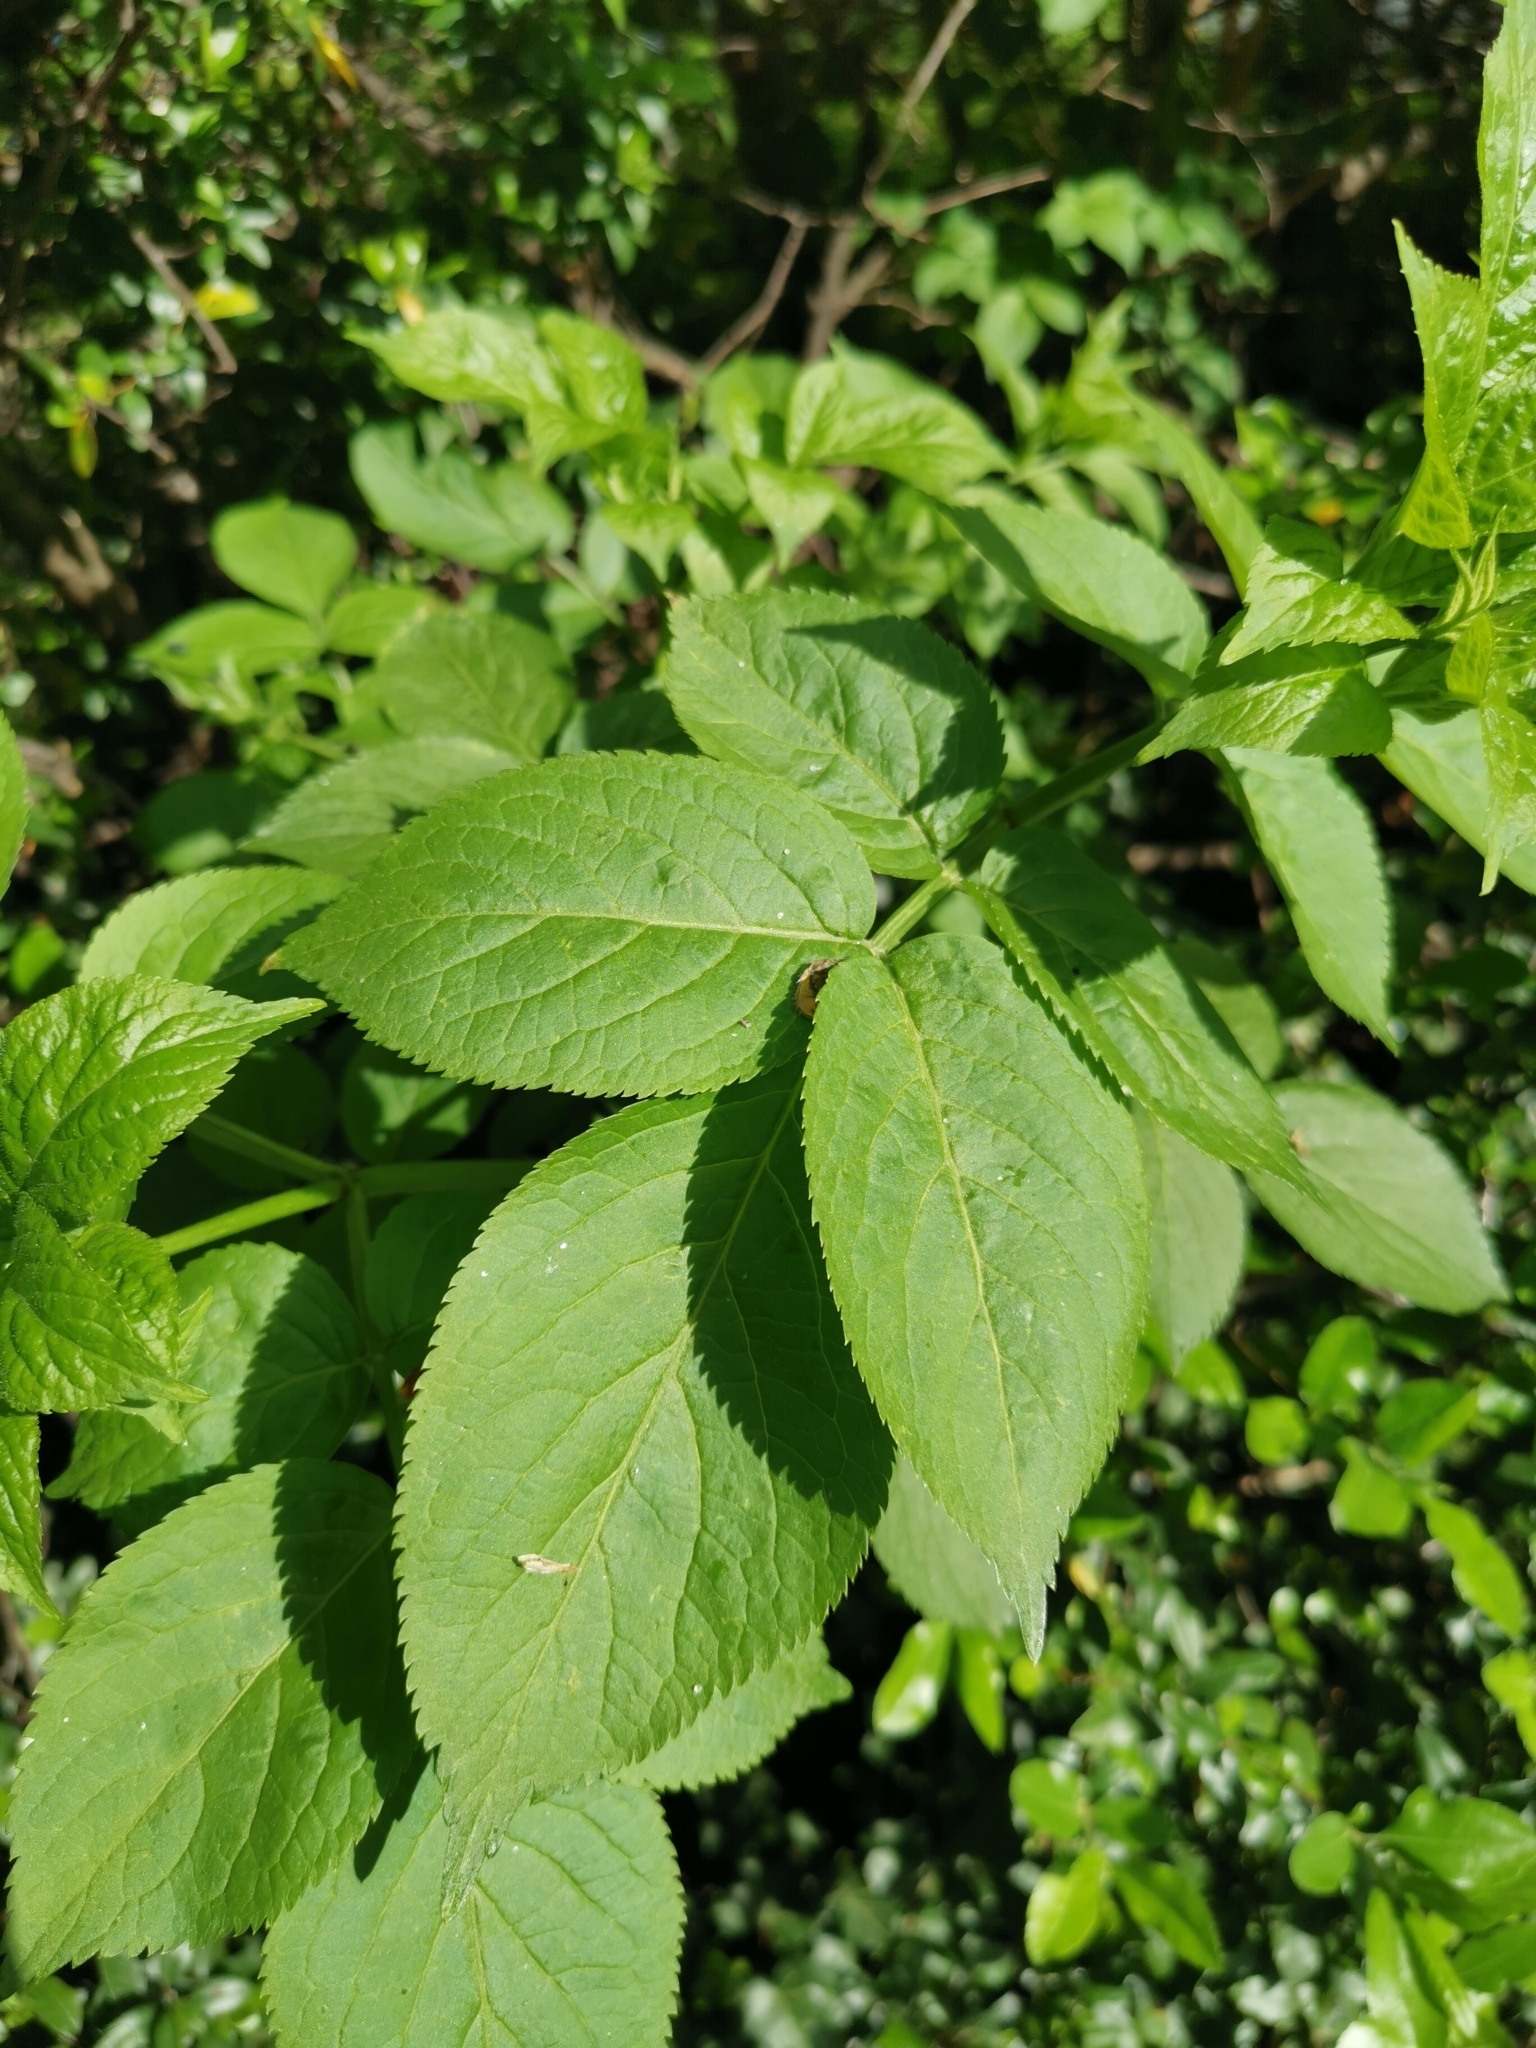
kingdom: Plantae
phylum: Tracheophyta
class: Magnoliopsida
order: Dipsacales
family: Viburnaceae
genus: Sambucus
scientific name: Sambucus nigra
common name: Elder
